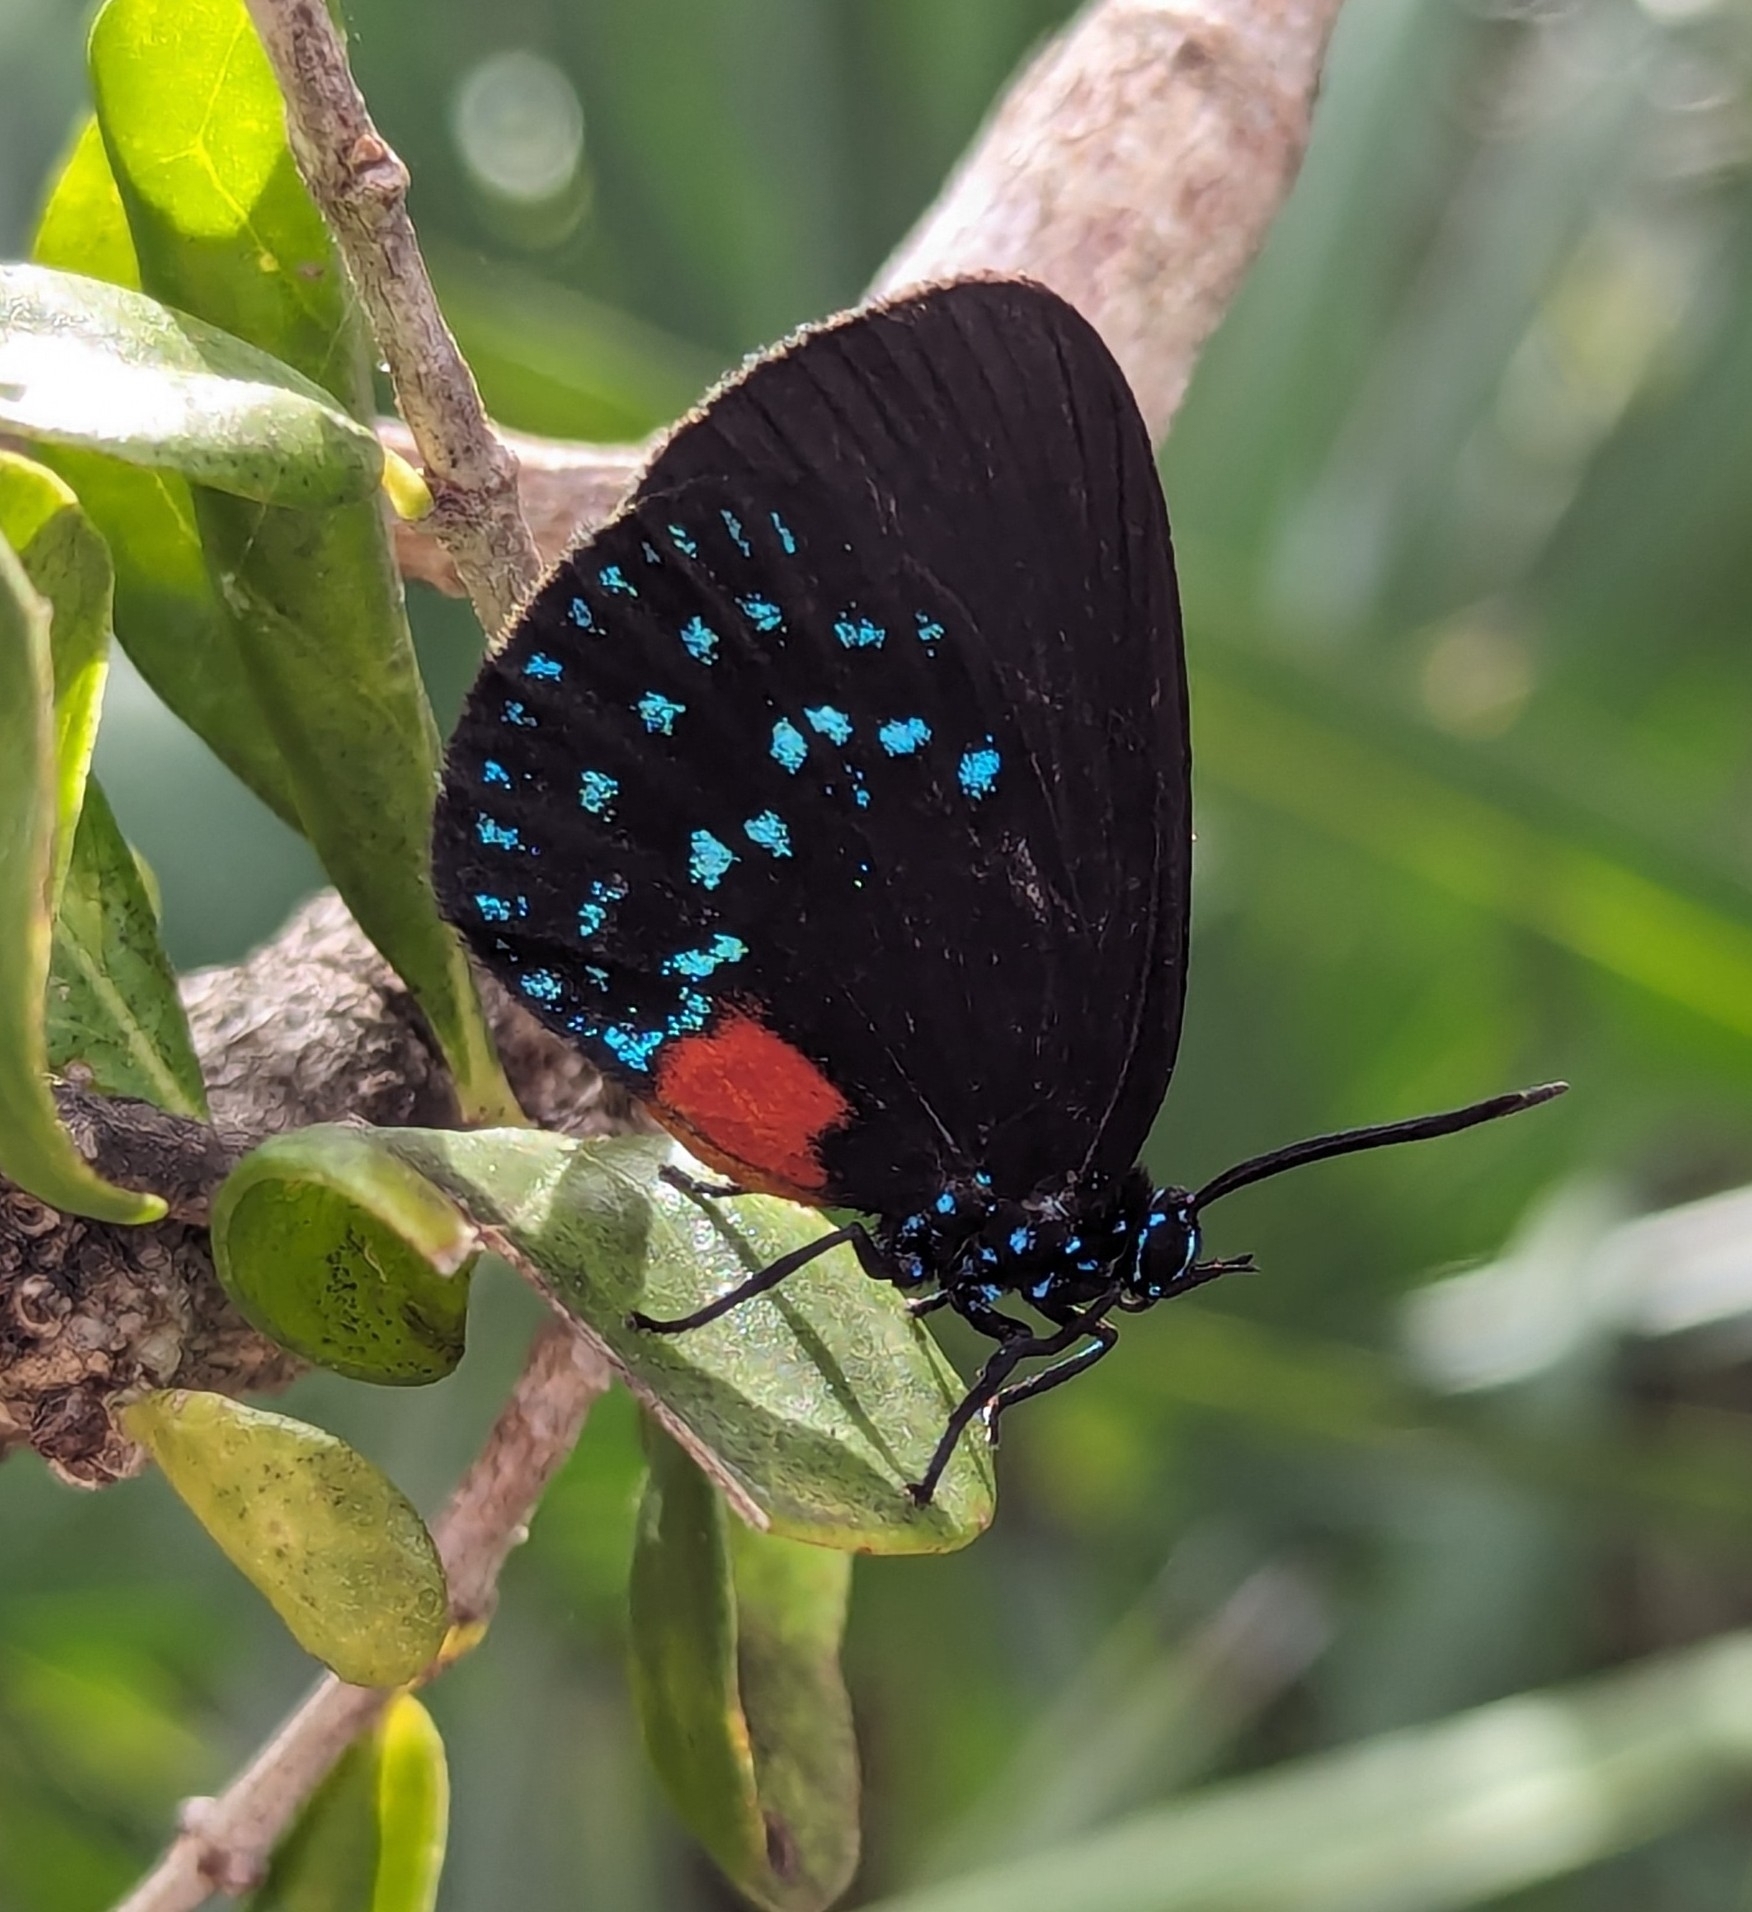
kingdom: Animalia
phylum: Arthropoda
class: Insecta
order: Lepidoptera
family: Lycaenidae
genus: Eumaeus
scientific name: Eumaeus atala
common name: Atala
